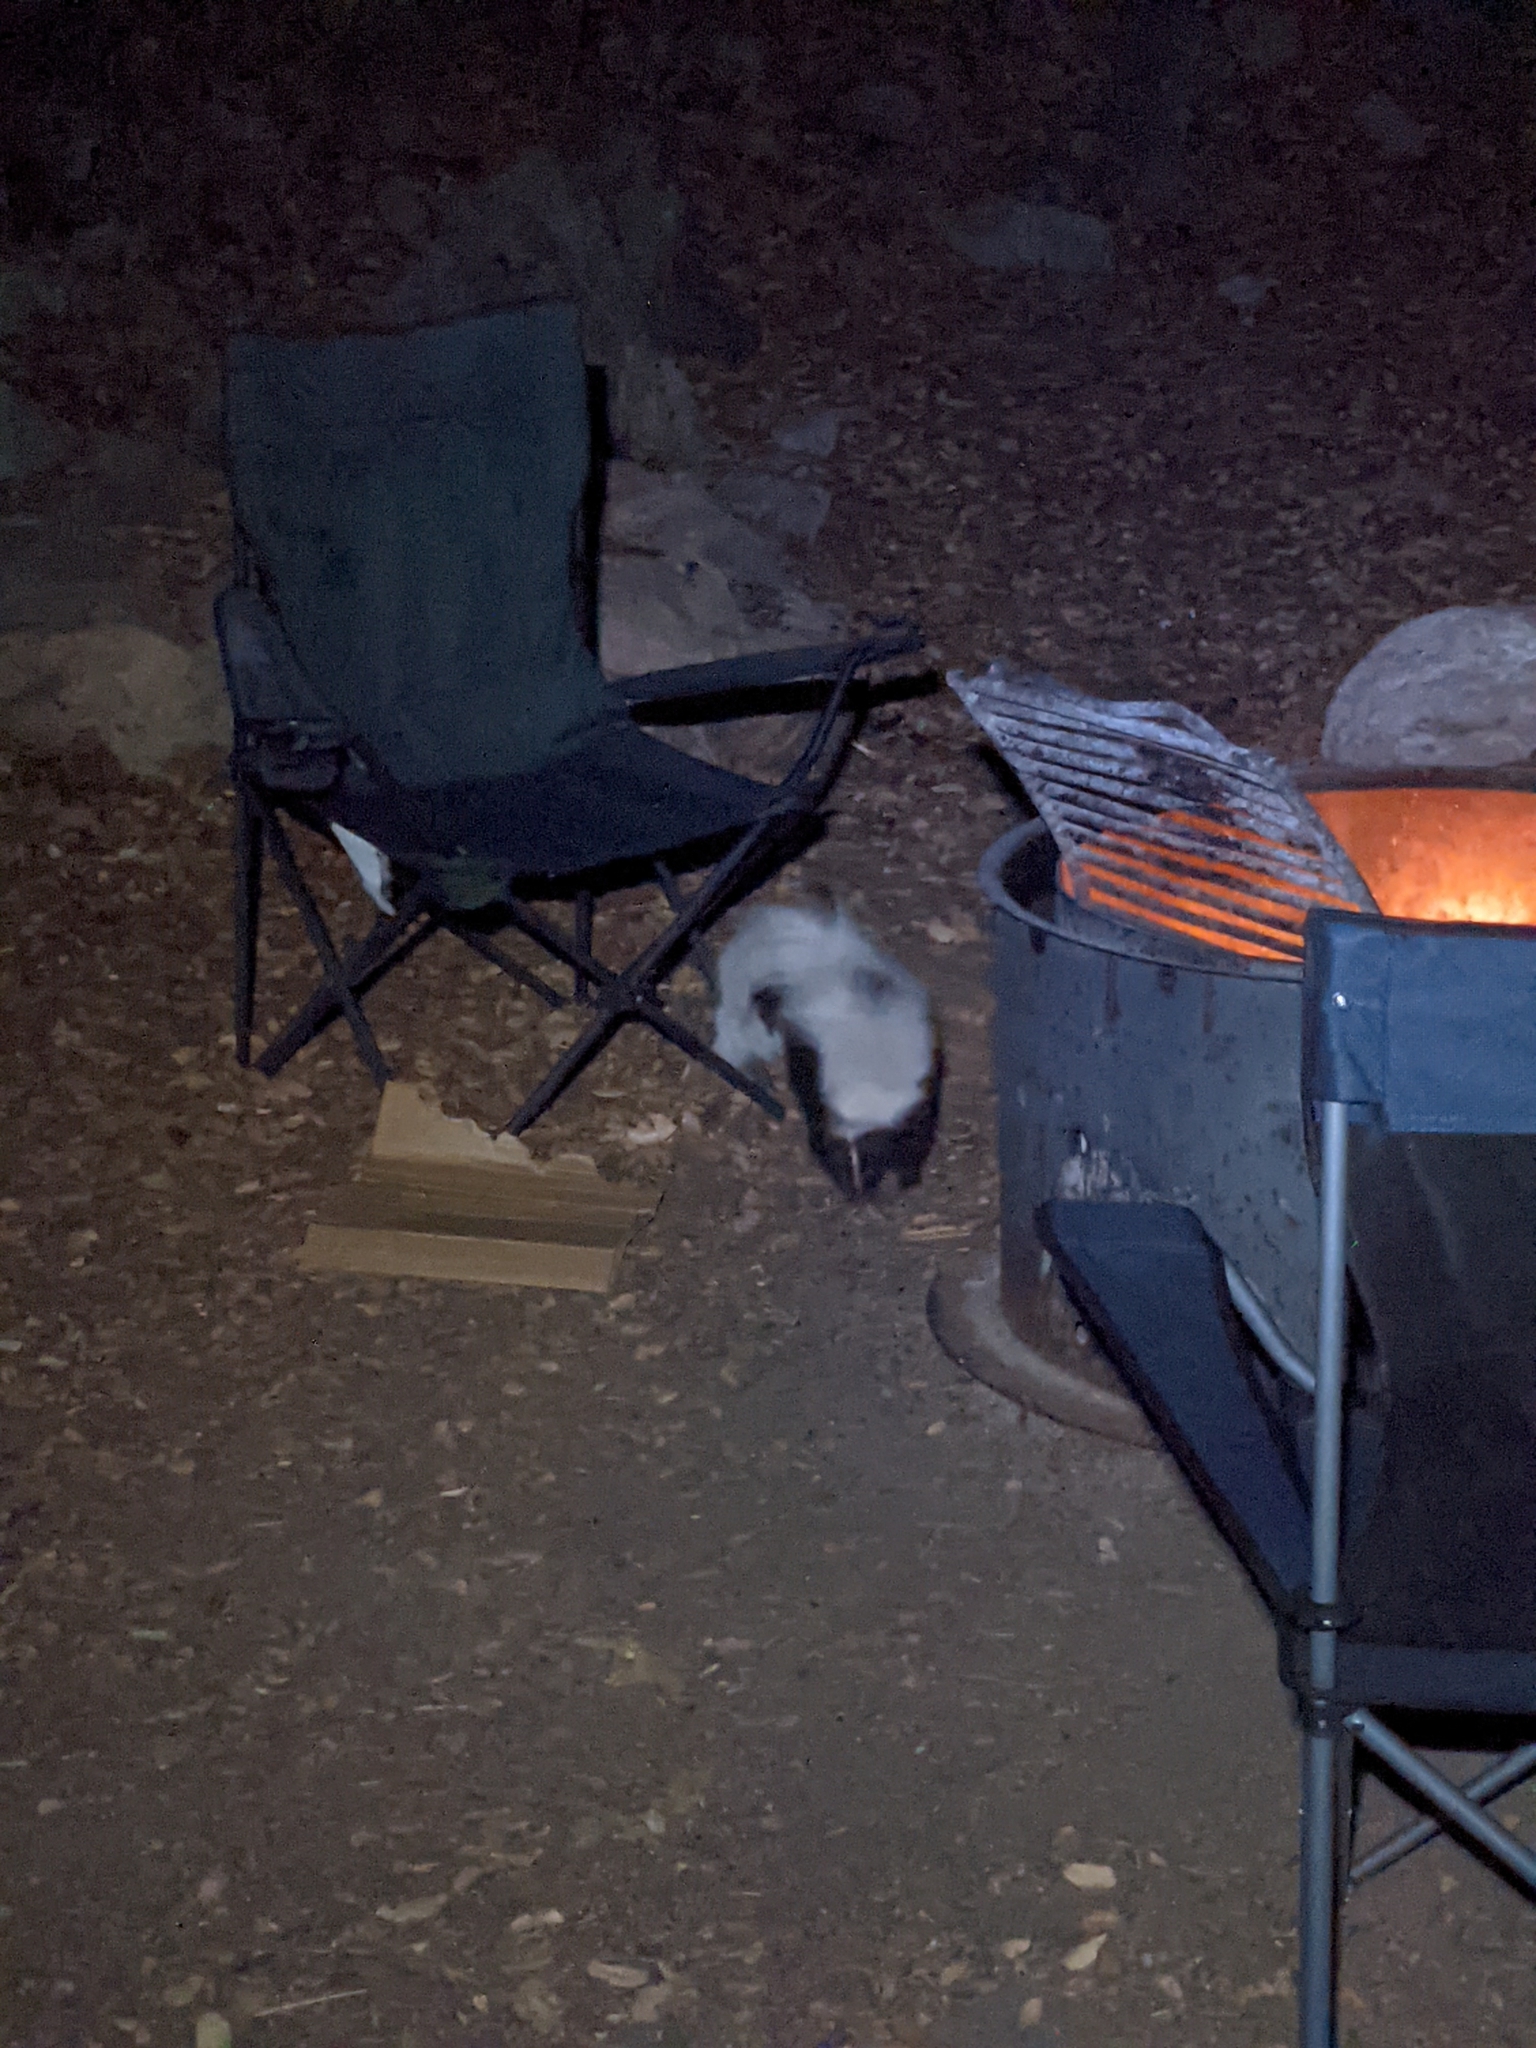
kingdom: Animalia
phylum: Chordata
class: Mammalia
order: Carnivora
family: Mephitidae
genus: Mephitis
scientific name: Mephitis macroura
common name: Hooded skunk
